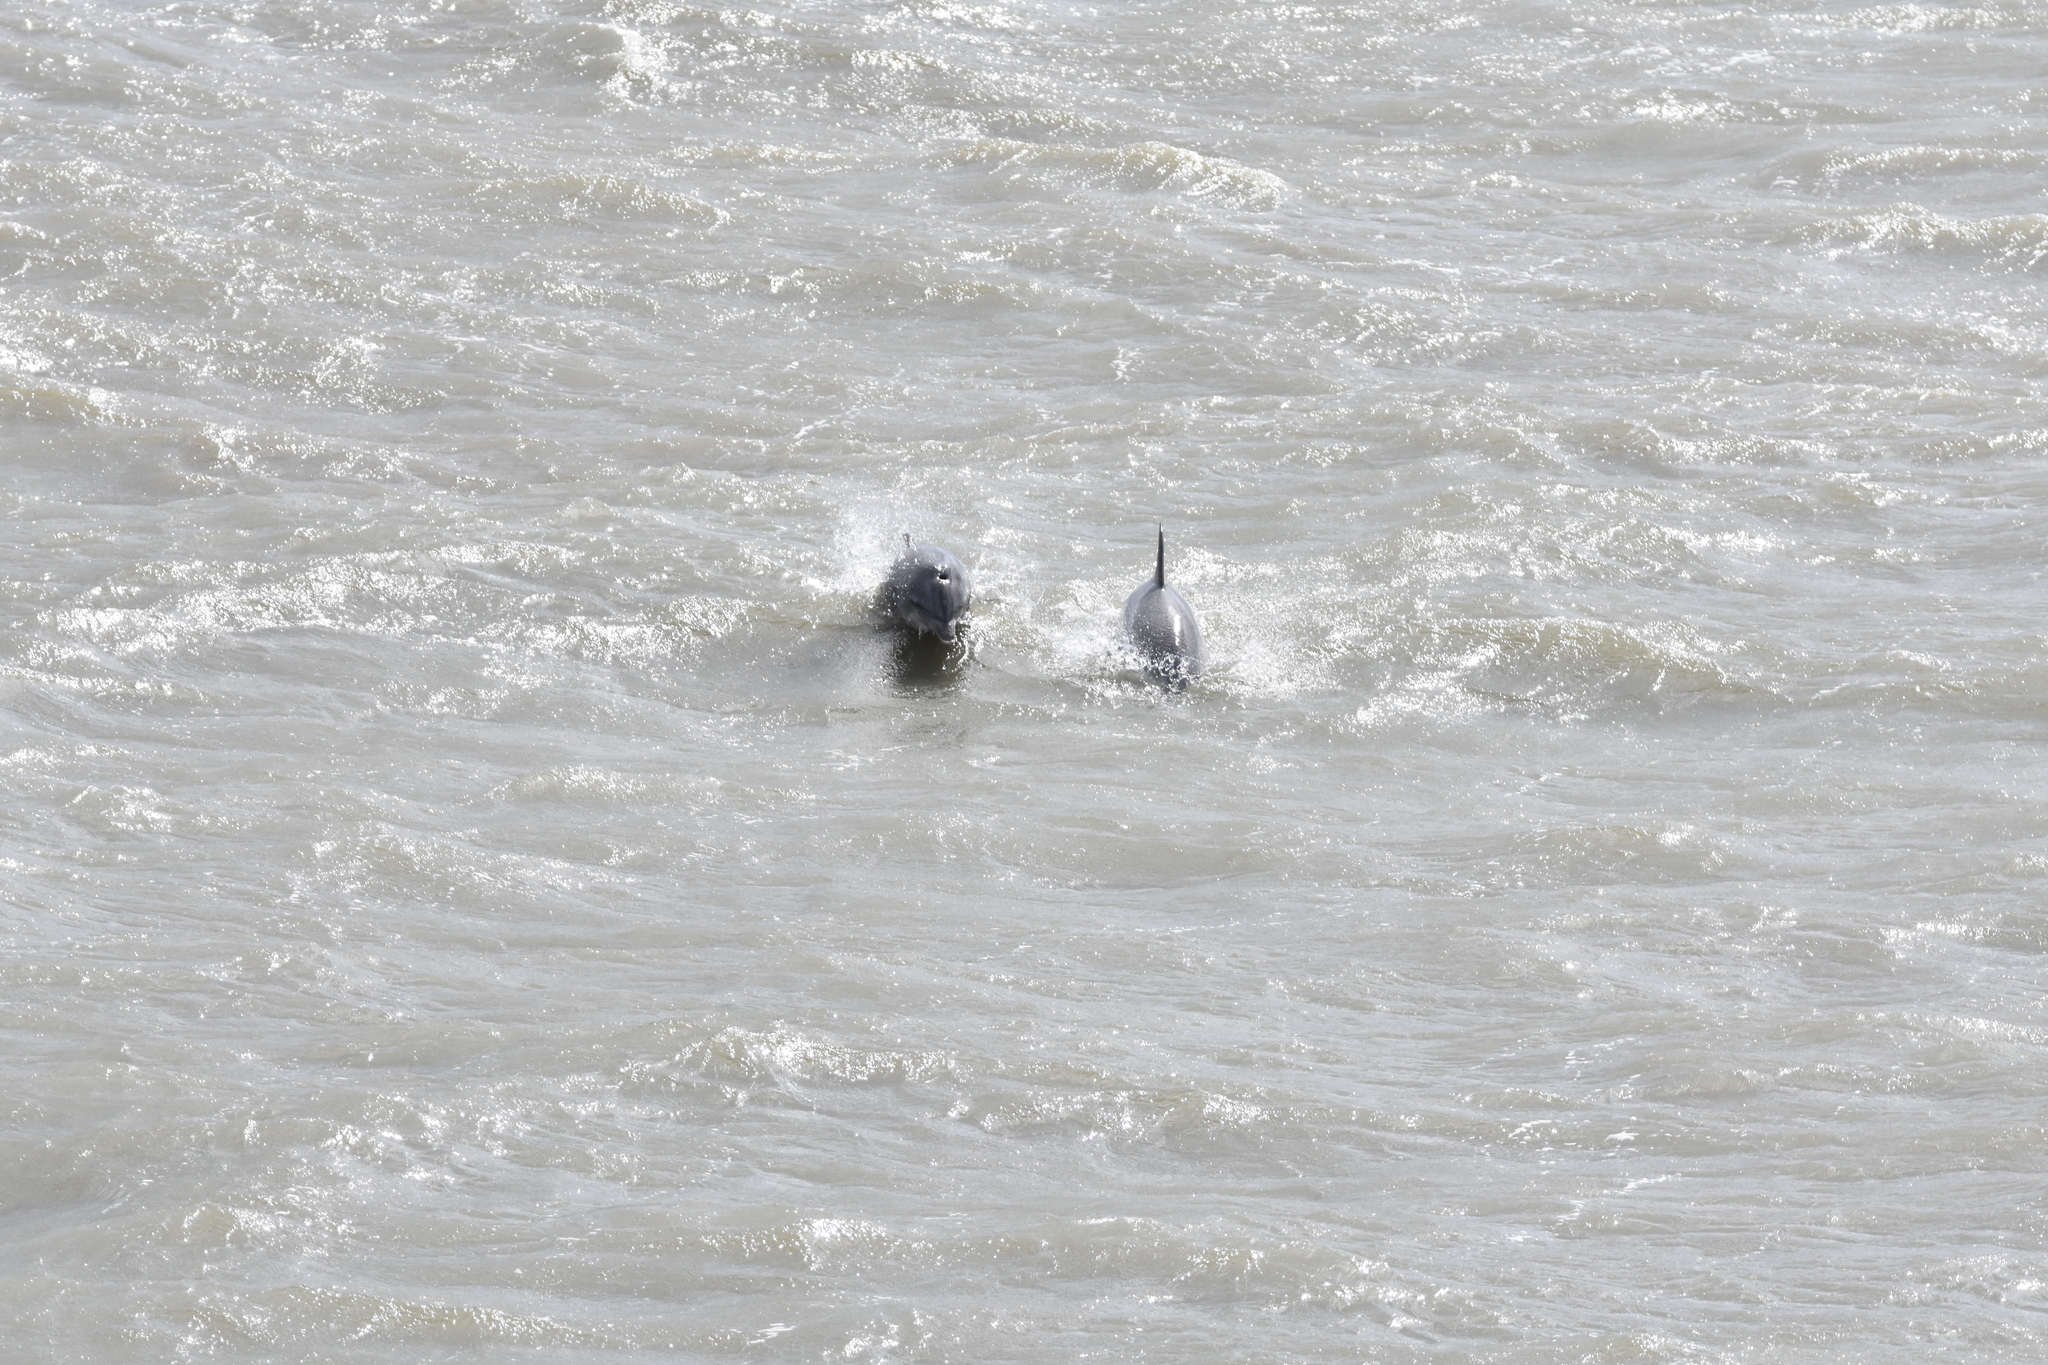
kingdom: Animalia
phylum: Chordata
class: Mammalia
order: Cetacea
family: Delphinidae
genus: Tursiops
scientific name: Tursiops truncatus
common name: Bottlenose dolphin
